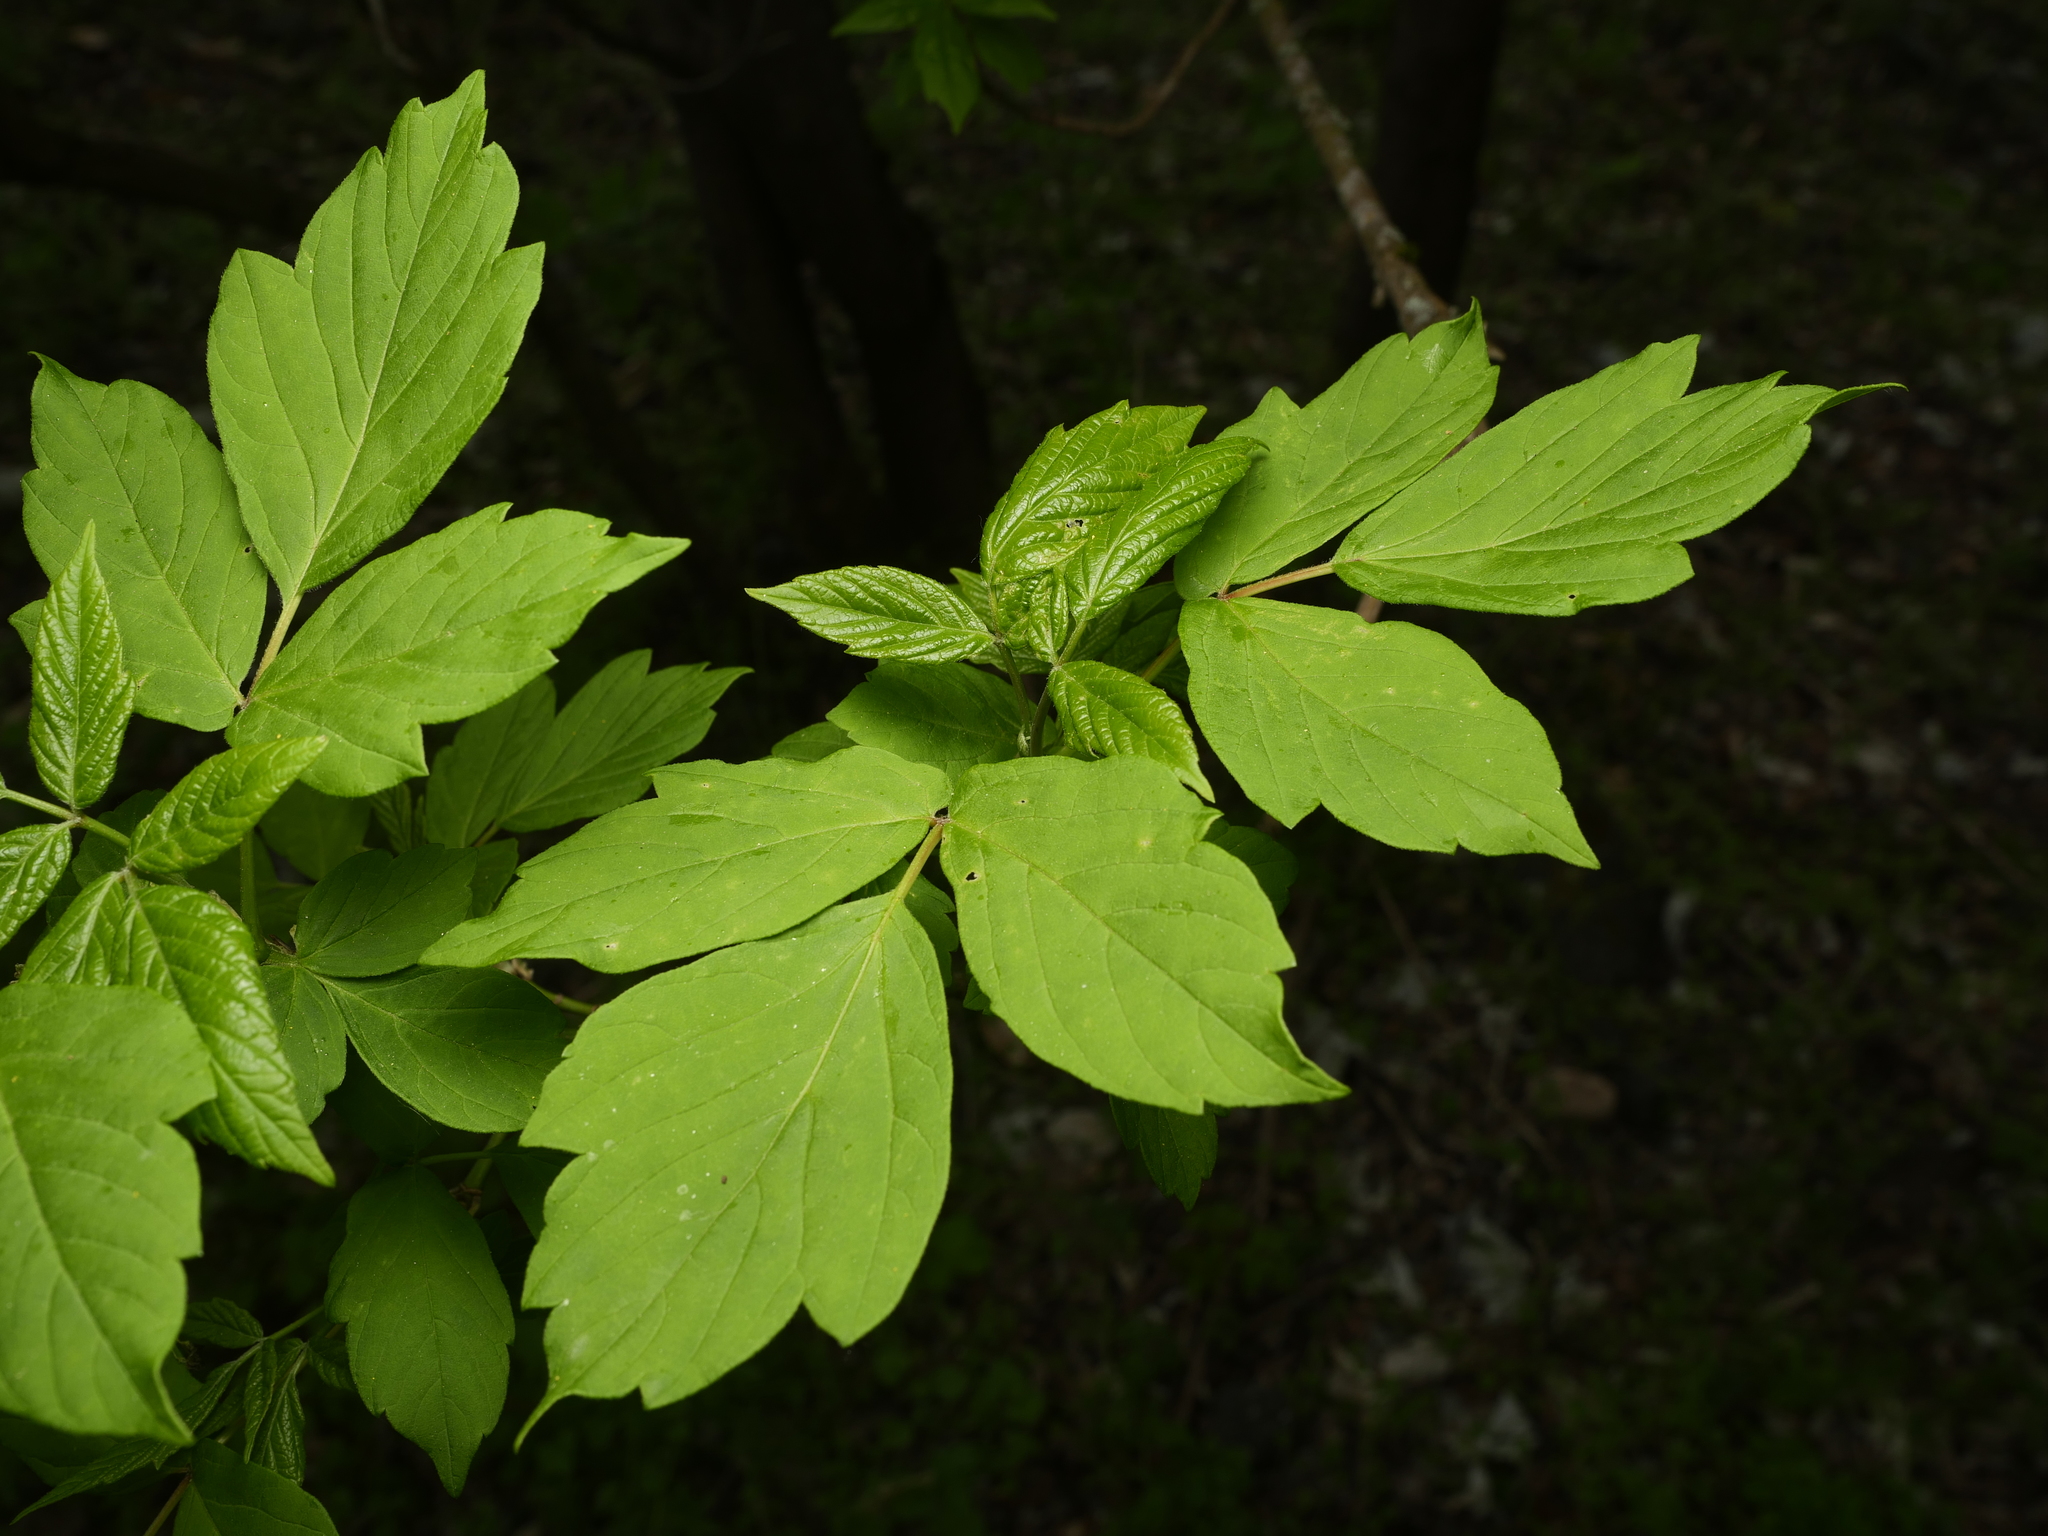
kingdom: Plantae
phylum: Tracheophyta
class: Magnoliopsida
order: Sapindales
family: Sapindaceae
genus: Acer
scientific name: Acer negundo
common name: Ashleaf maple
